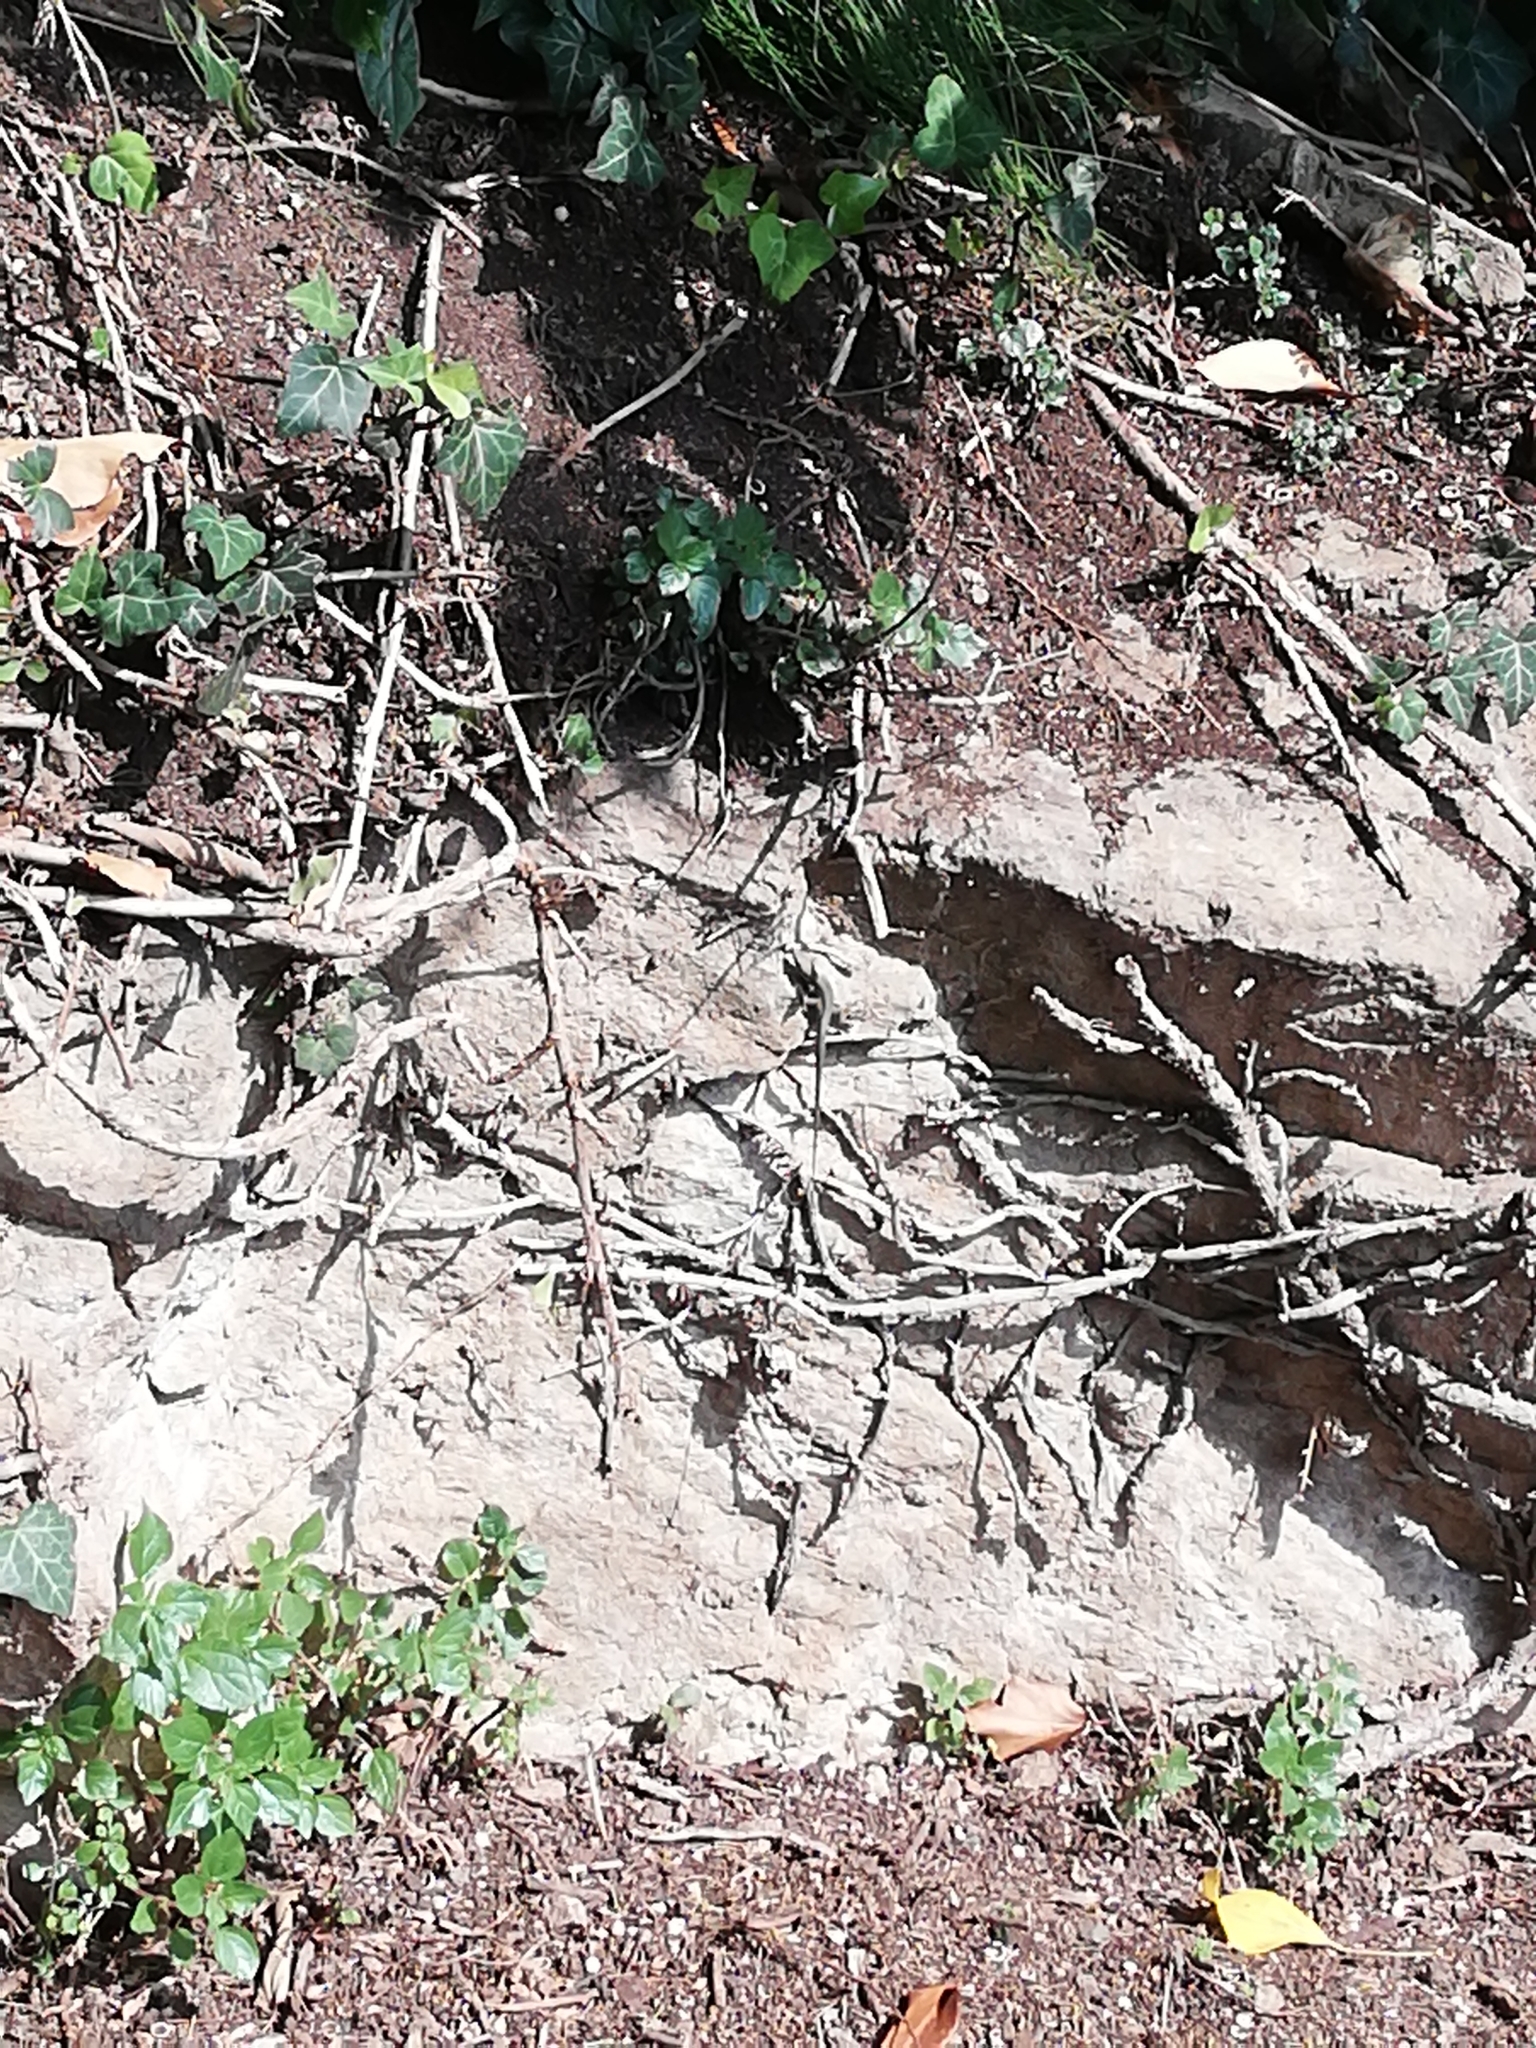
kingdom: Animalia
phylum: Chordata
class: Squamata
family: Lacertidae
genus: Podarcis
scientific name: Podarcis muralis
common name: Common wall lizard
